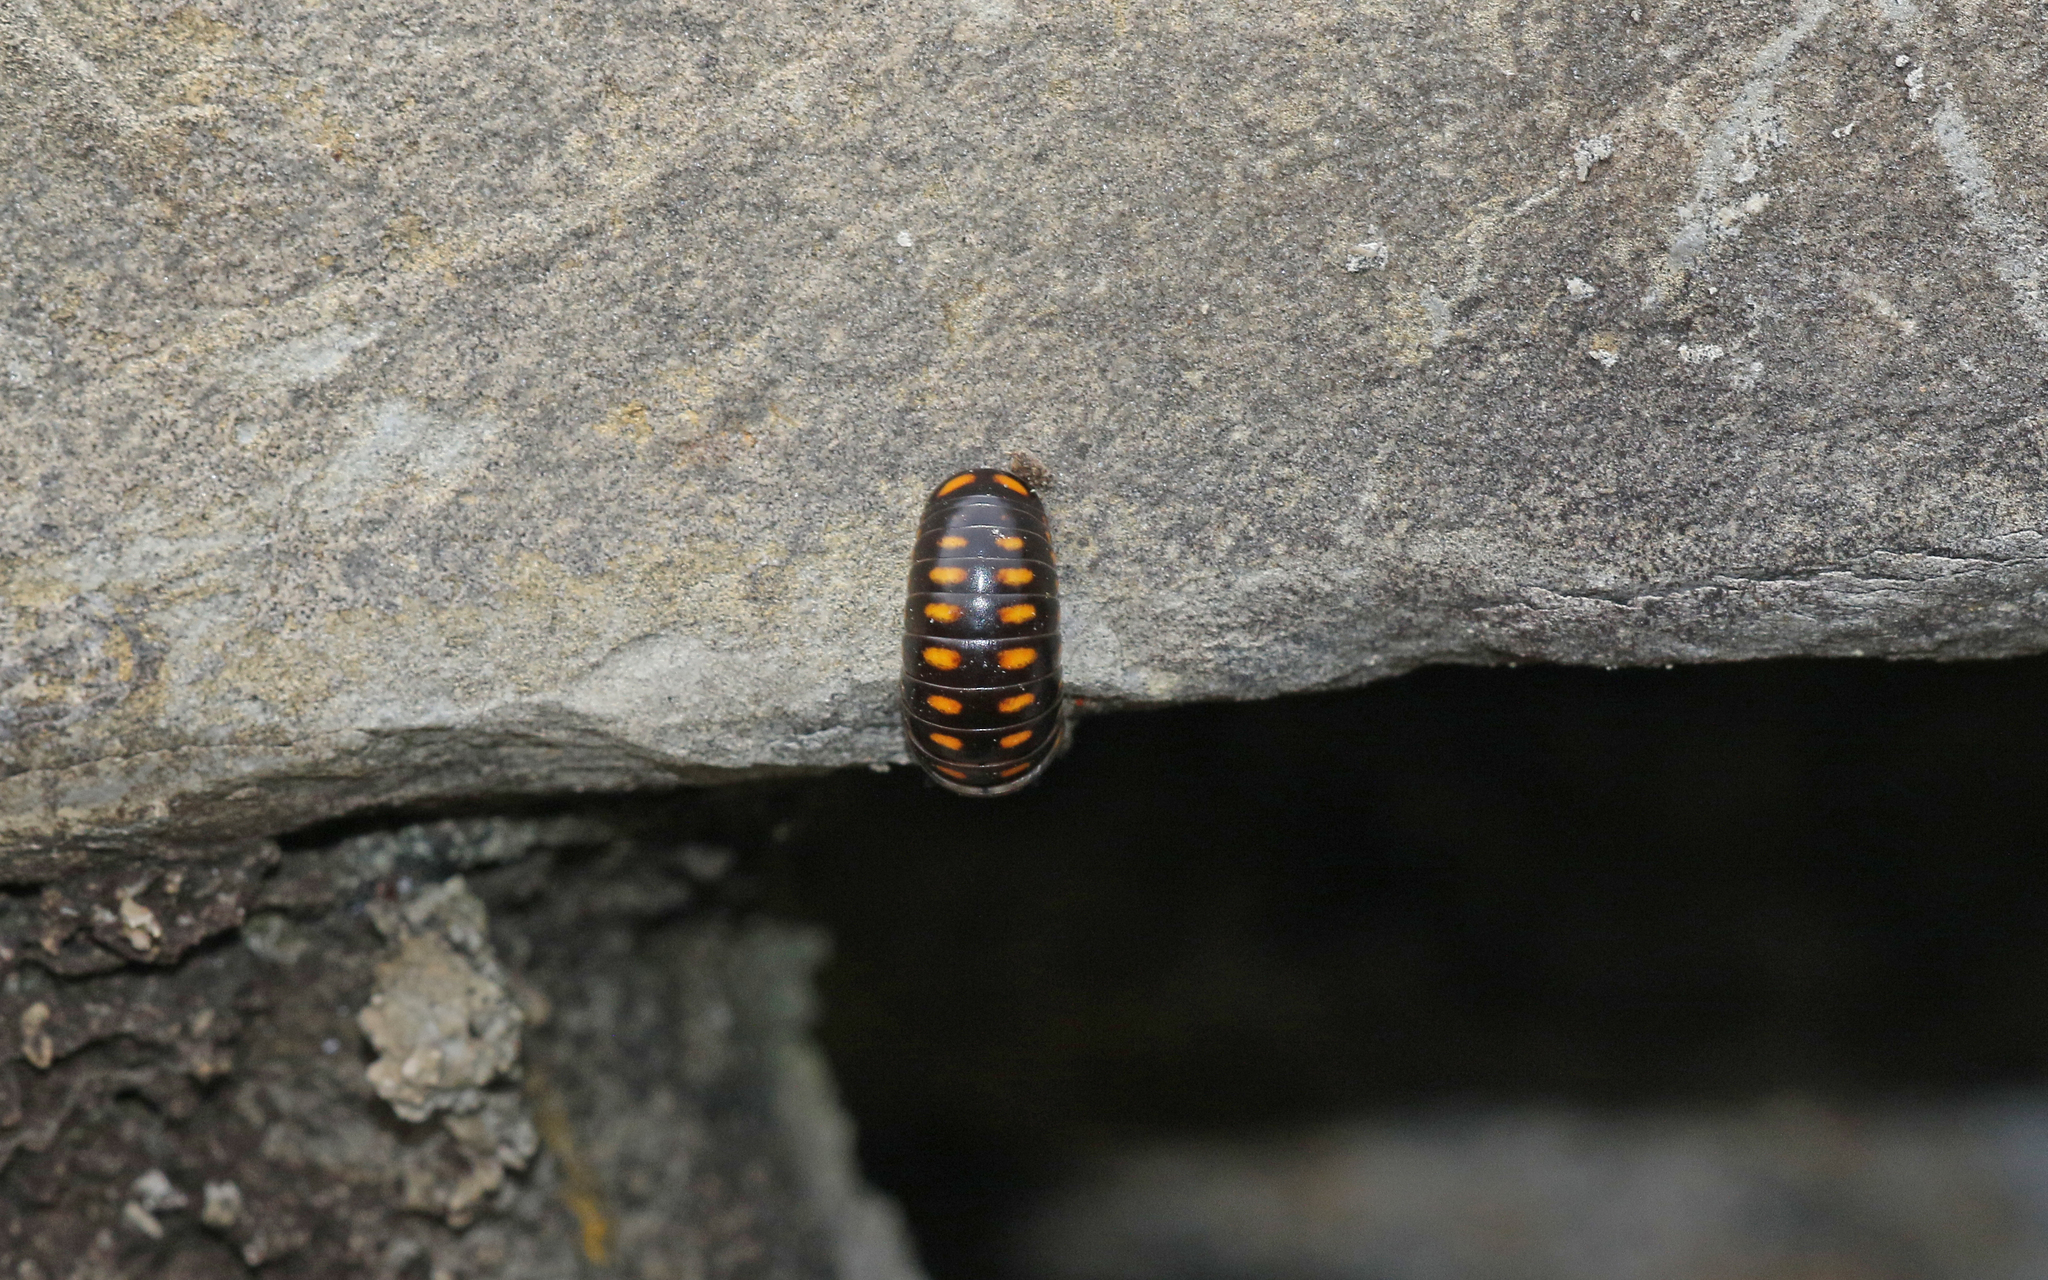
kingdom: Animalia
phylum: Arthropoda
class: Diplopoda
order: Glomerida
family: Glomeridae
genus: Glomeris
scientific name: Glomeris guttata
